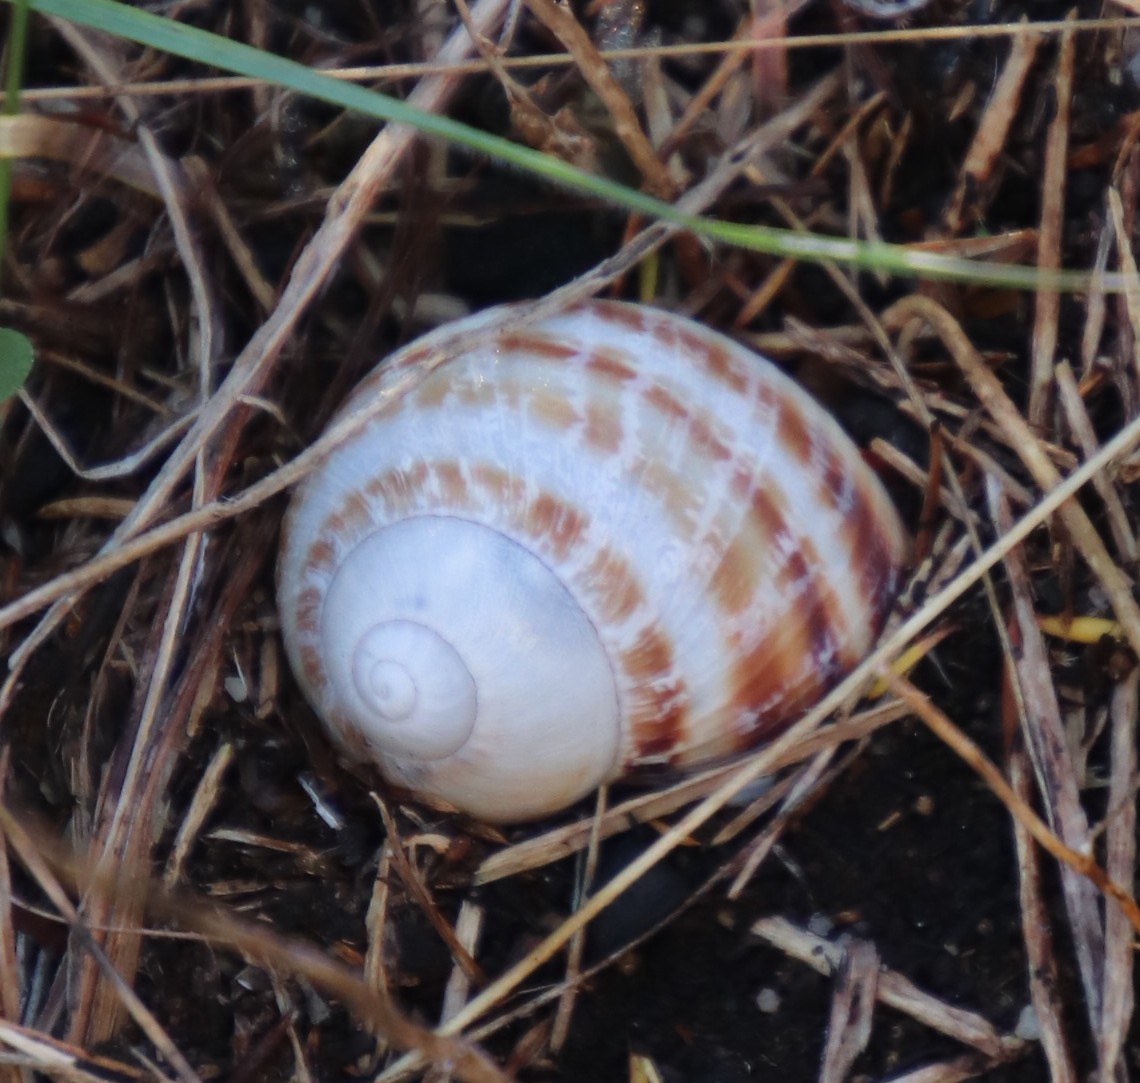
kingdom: Animalia
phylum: Mollusca
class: Gastropoda
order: Stylommatophora
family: Helicidae
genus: Cornu
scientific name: Cornu aspersum
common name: Brown garden snail
